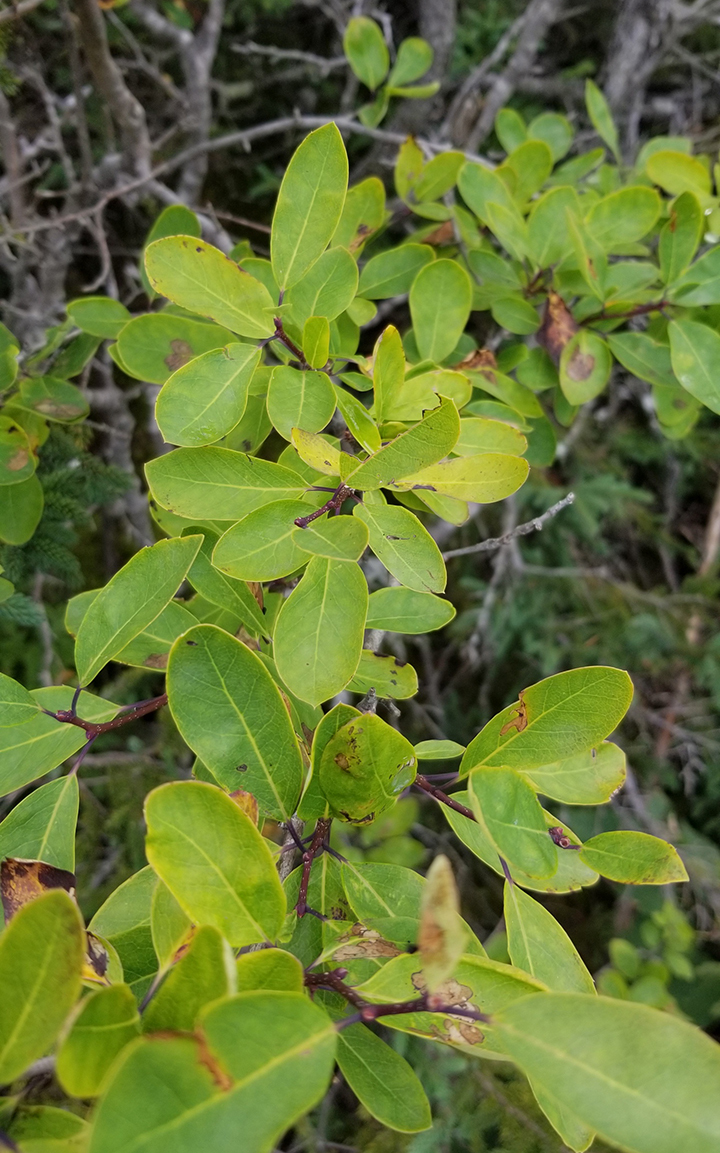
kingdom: Plantae
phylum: Tracheophyta
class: Magnoliopsida
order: Aquifoliales
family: Aquifoliaceae
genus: Ilex
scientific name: Ilex mucronata
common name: Catberry
